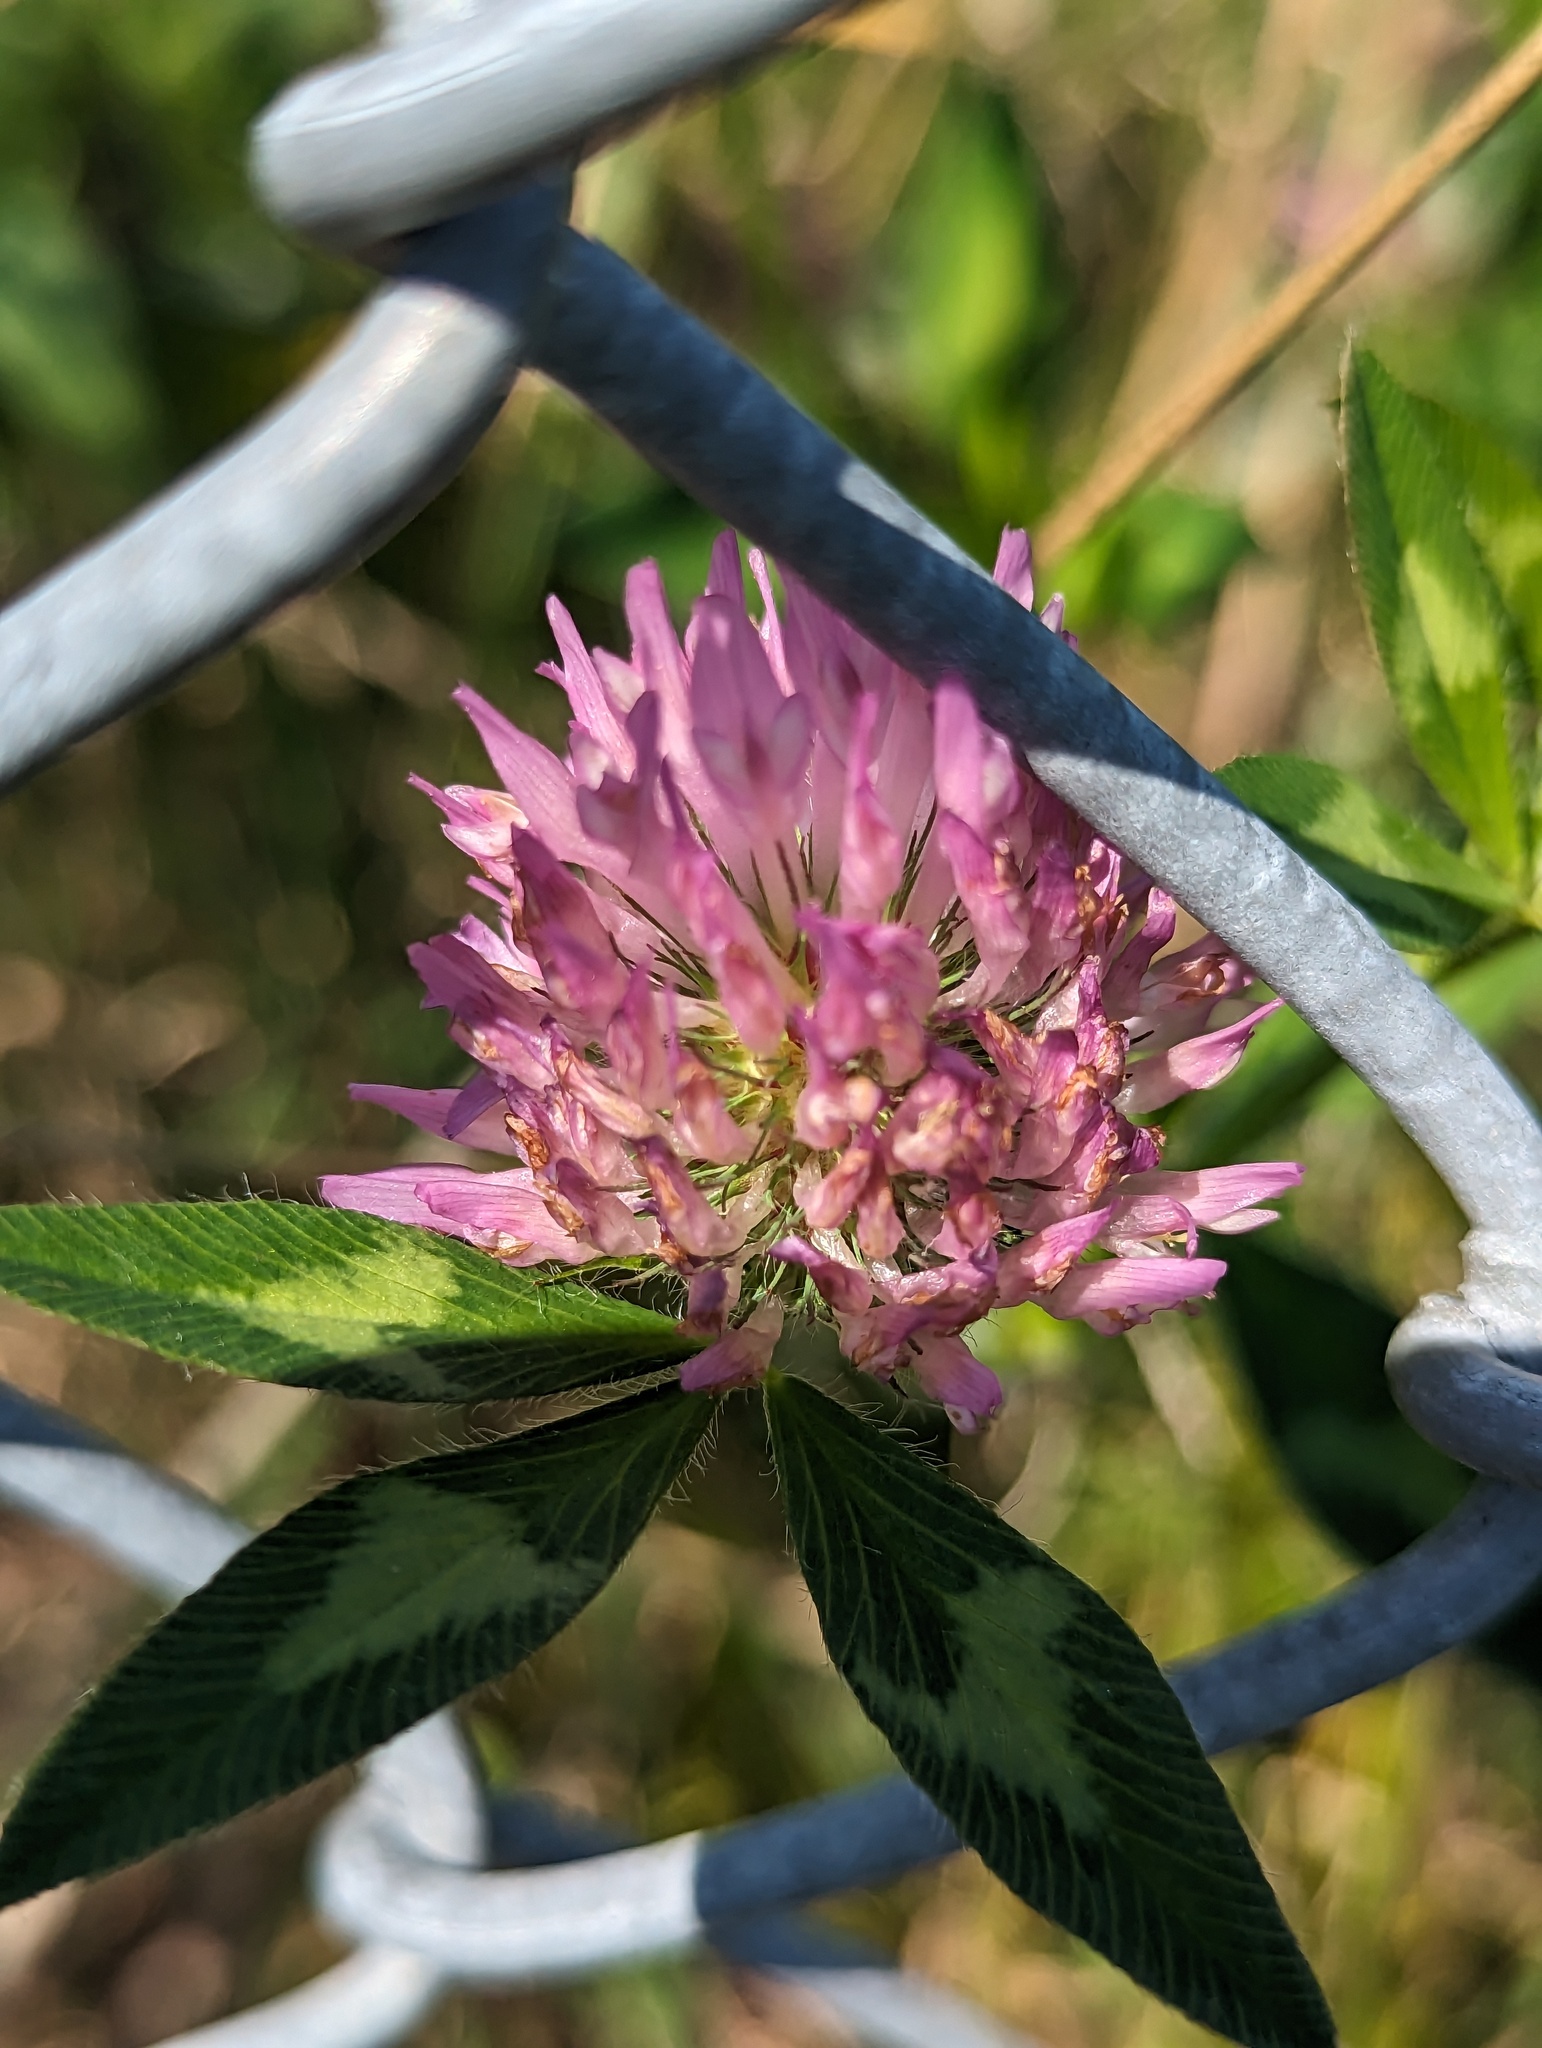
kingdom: Plantae
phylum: Tracheophyta
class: Magnoliopsida
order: Fabales
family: Fabaceae
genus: Trifolium
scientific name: Trifolium pratense
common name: Red clover
